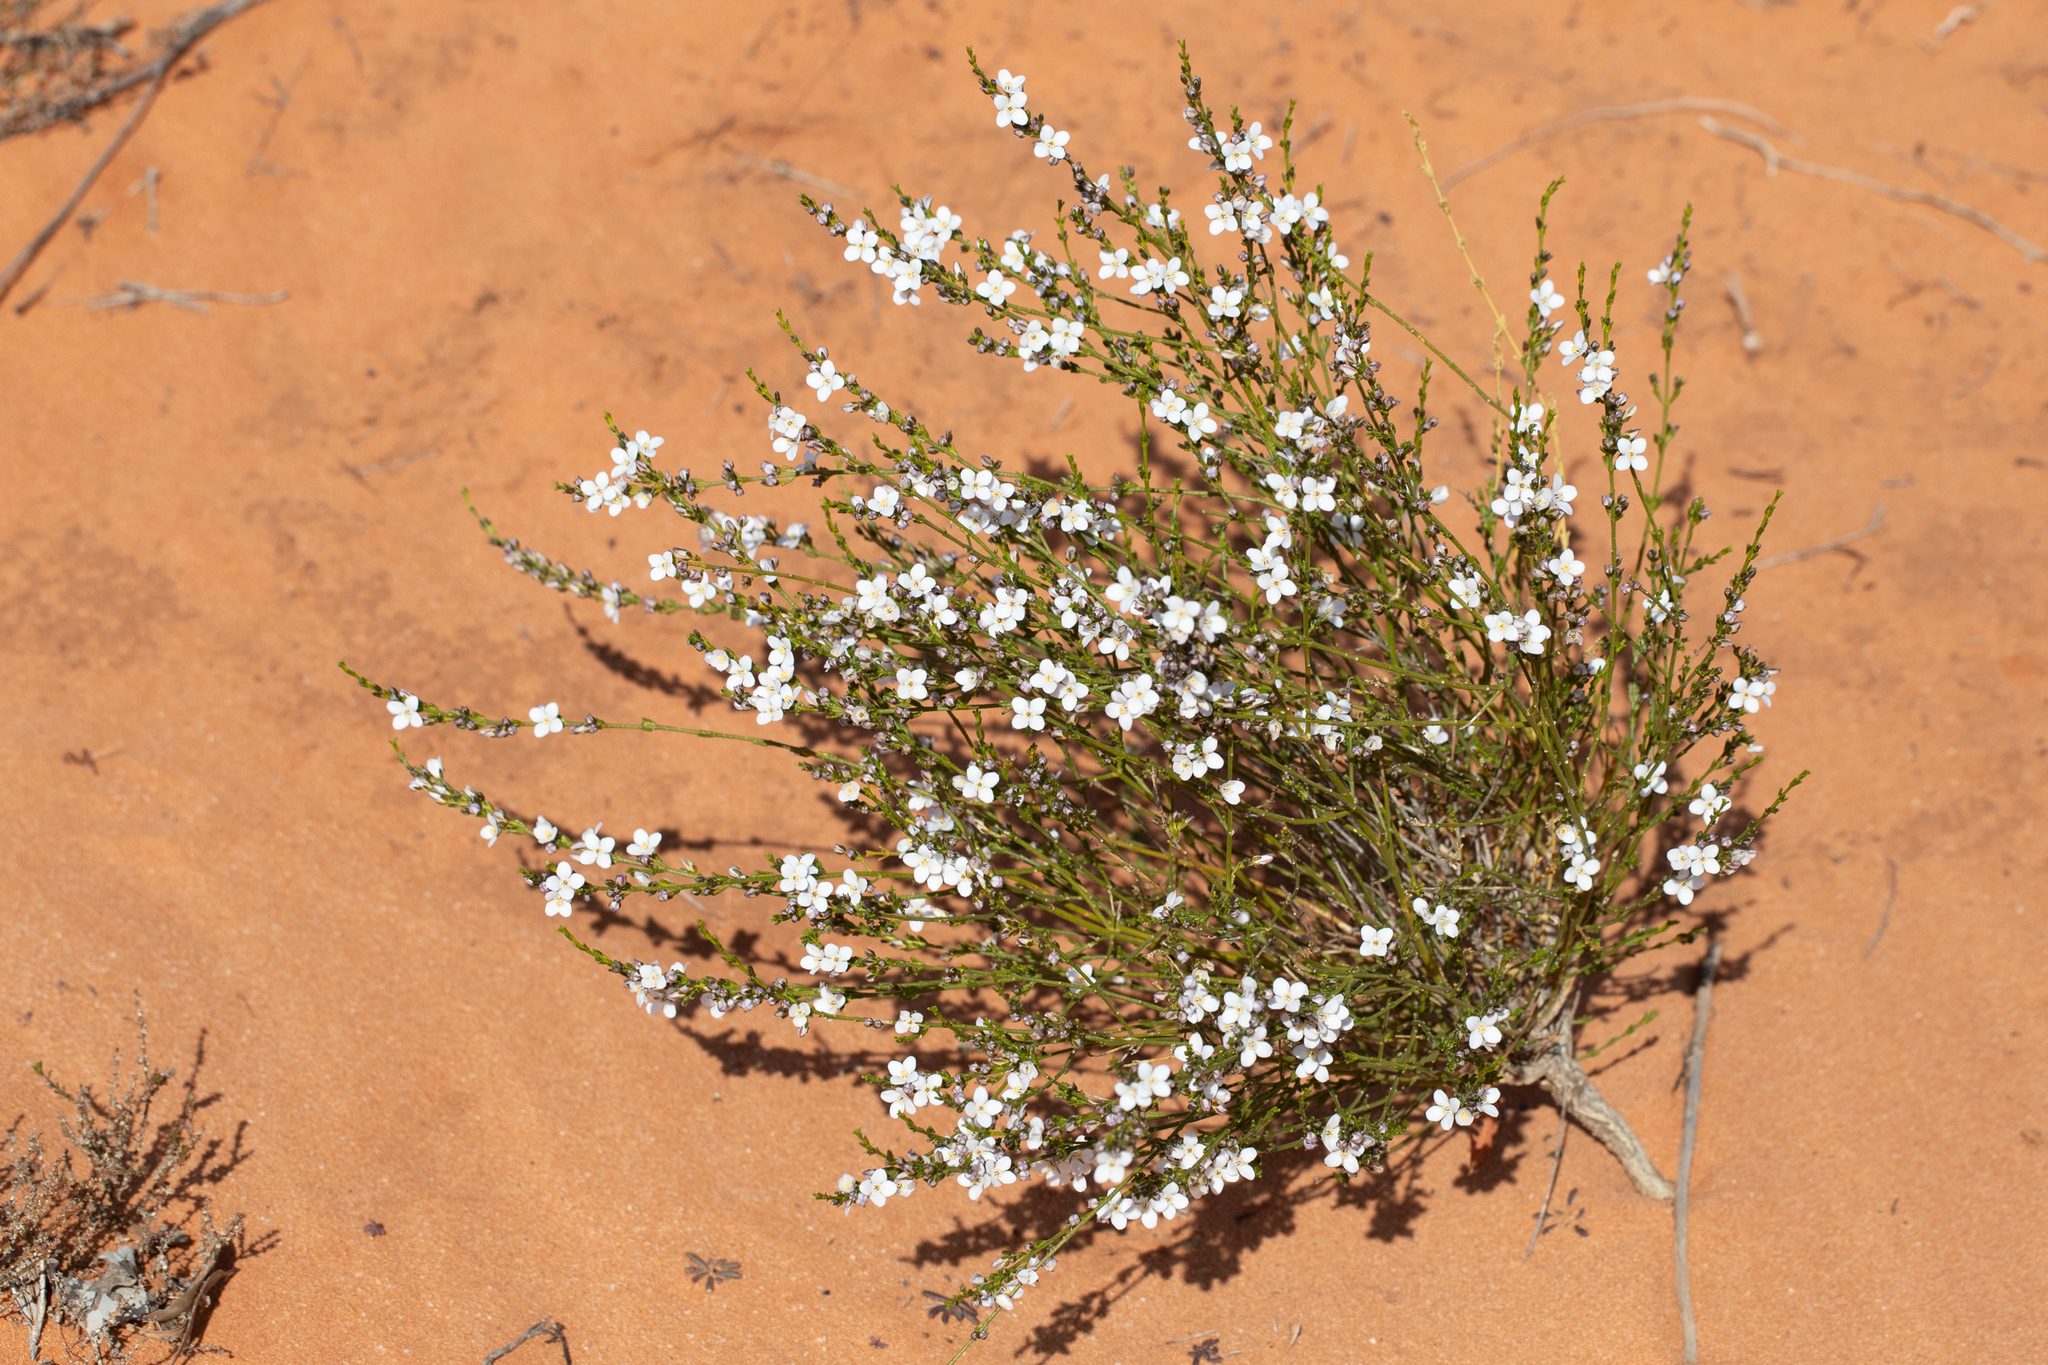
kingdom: Plantae
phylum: Tracheophyta
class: Magnoliopsida
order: Sapindales
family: Rutaceae
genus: Cyanothamnus
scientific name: Cyanothamnus coerulescens
